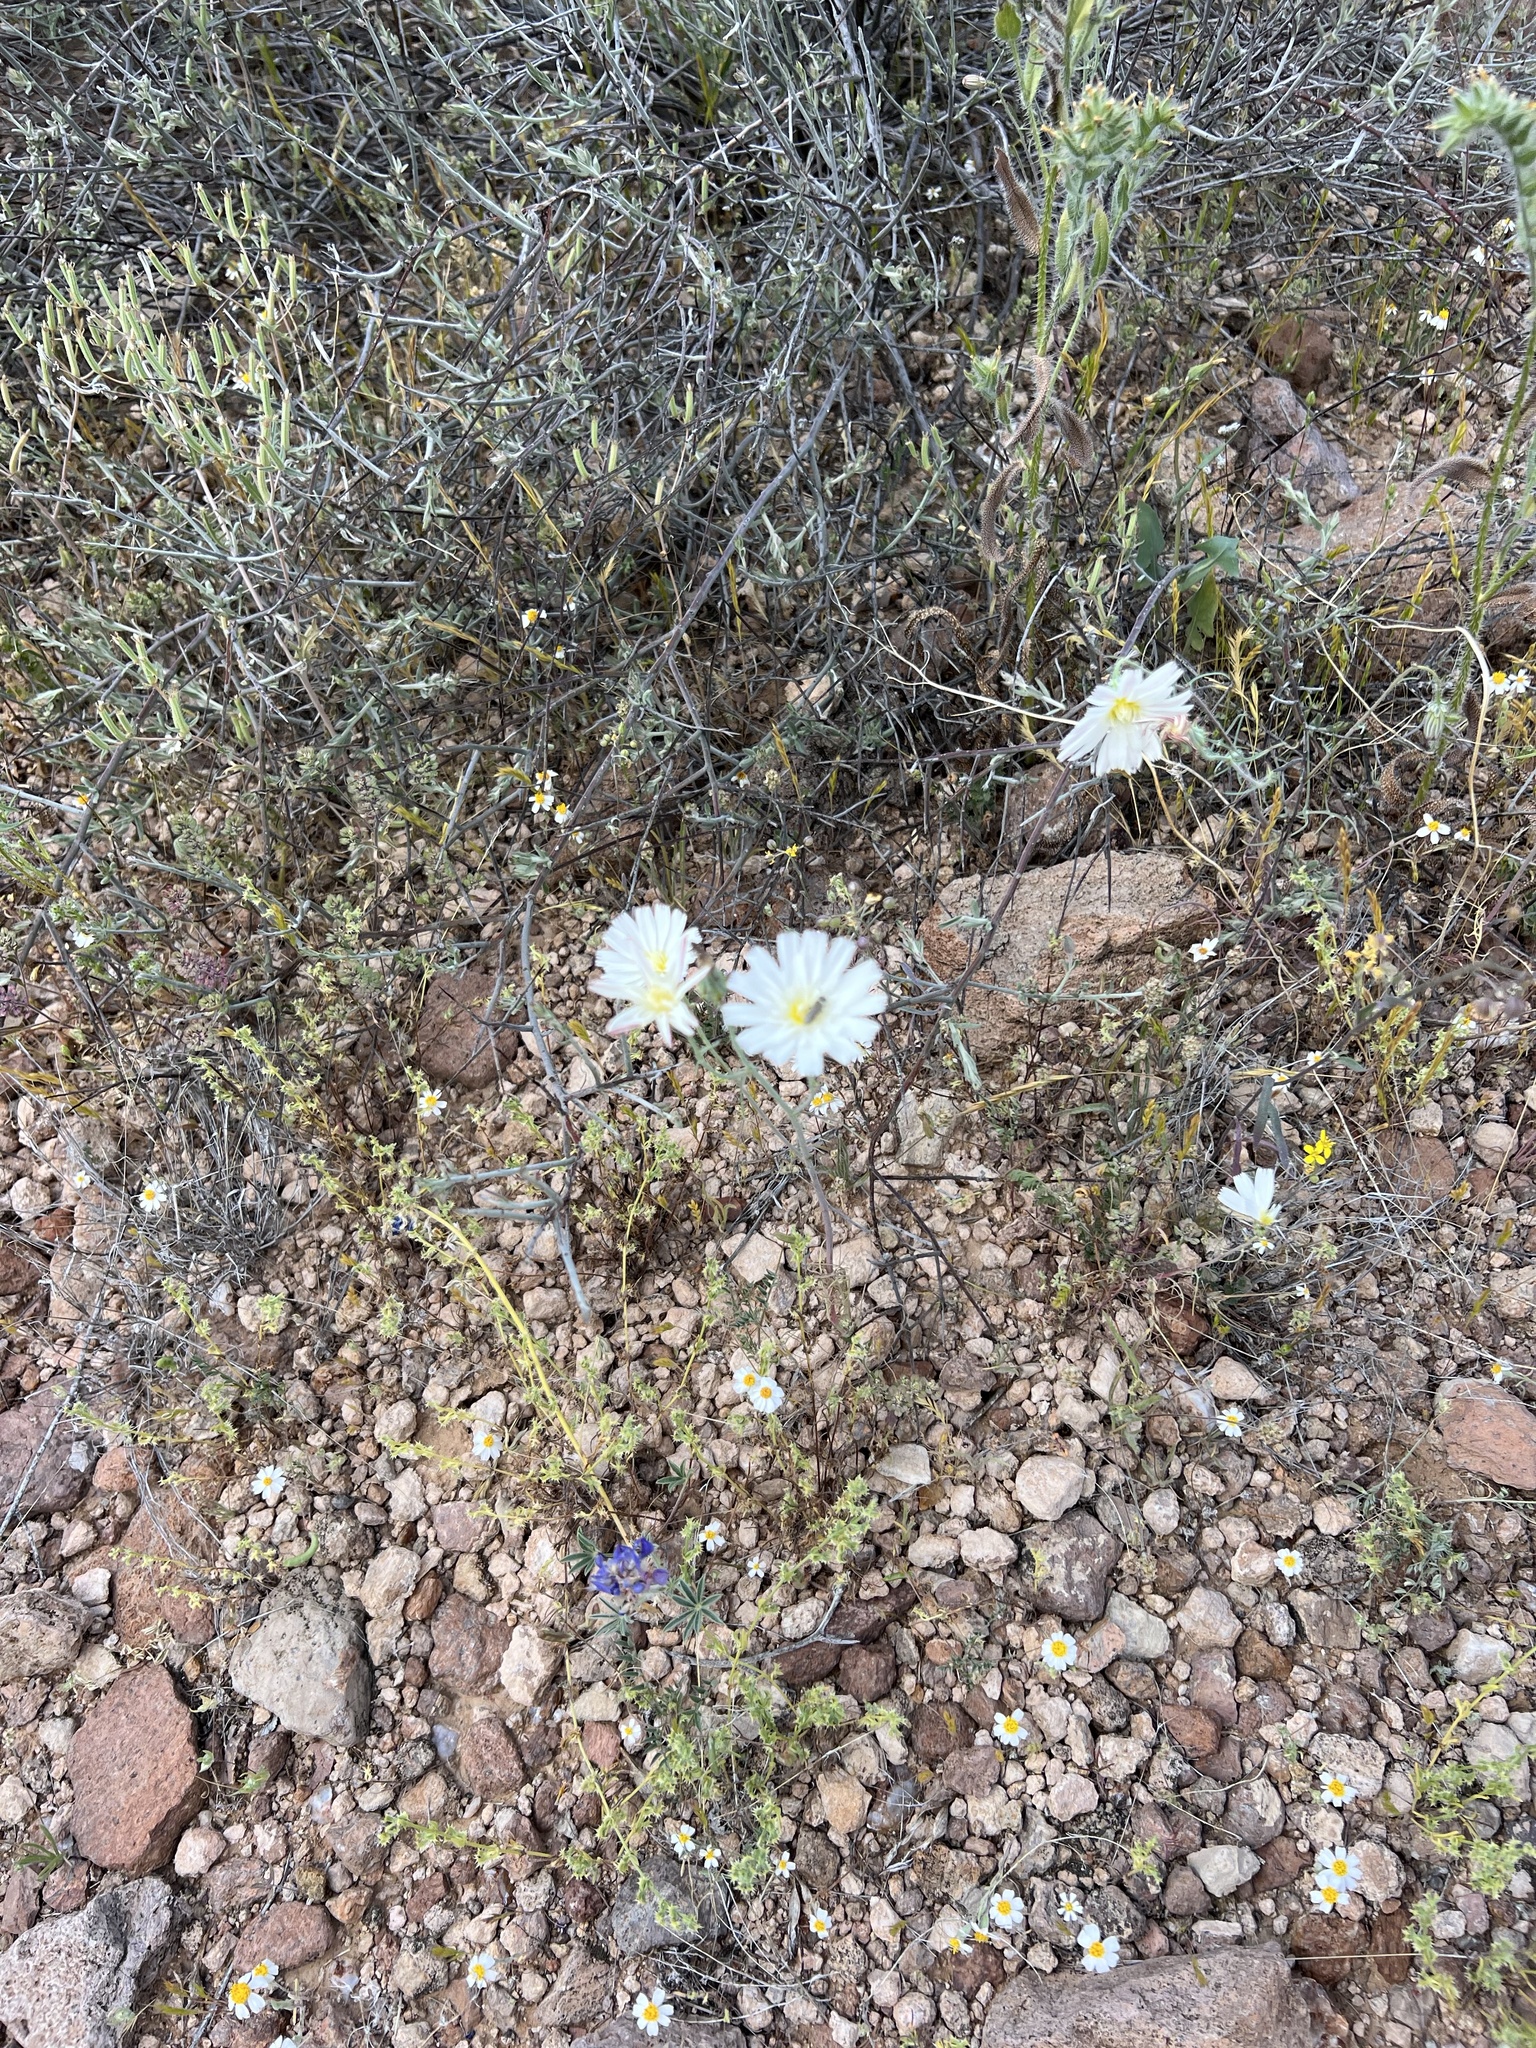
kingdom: Plantae
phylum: Tracheophyta
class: Magnoliopsida
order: Asterales
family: Asteraceae
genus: Rafinesquia
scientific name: Rafinesquia neomexicana
